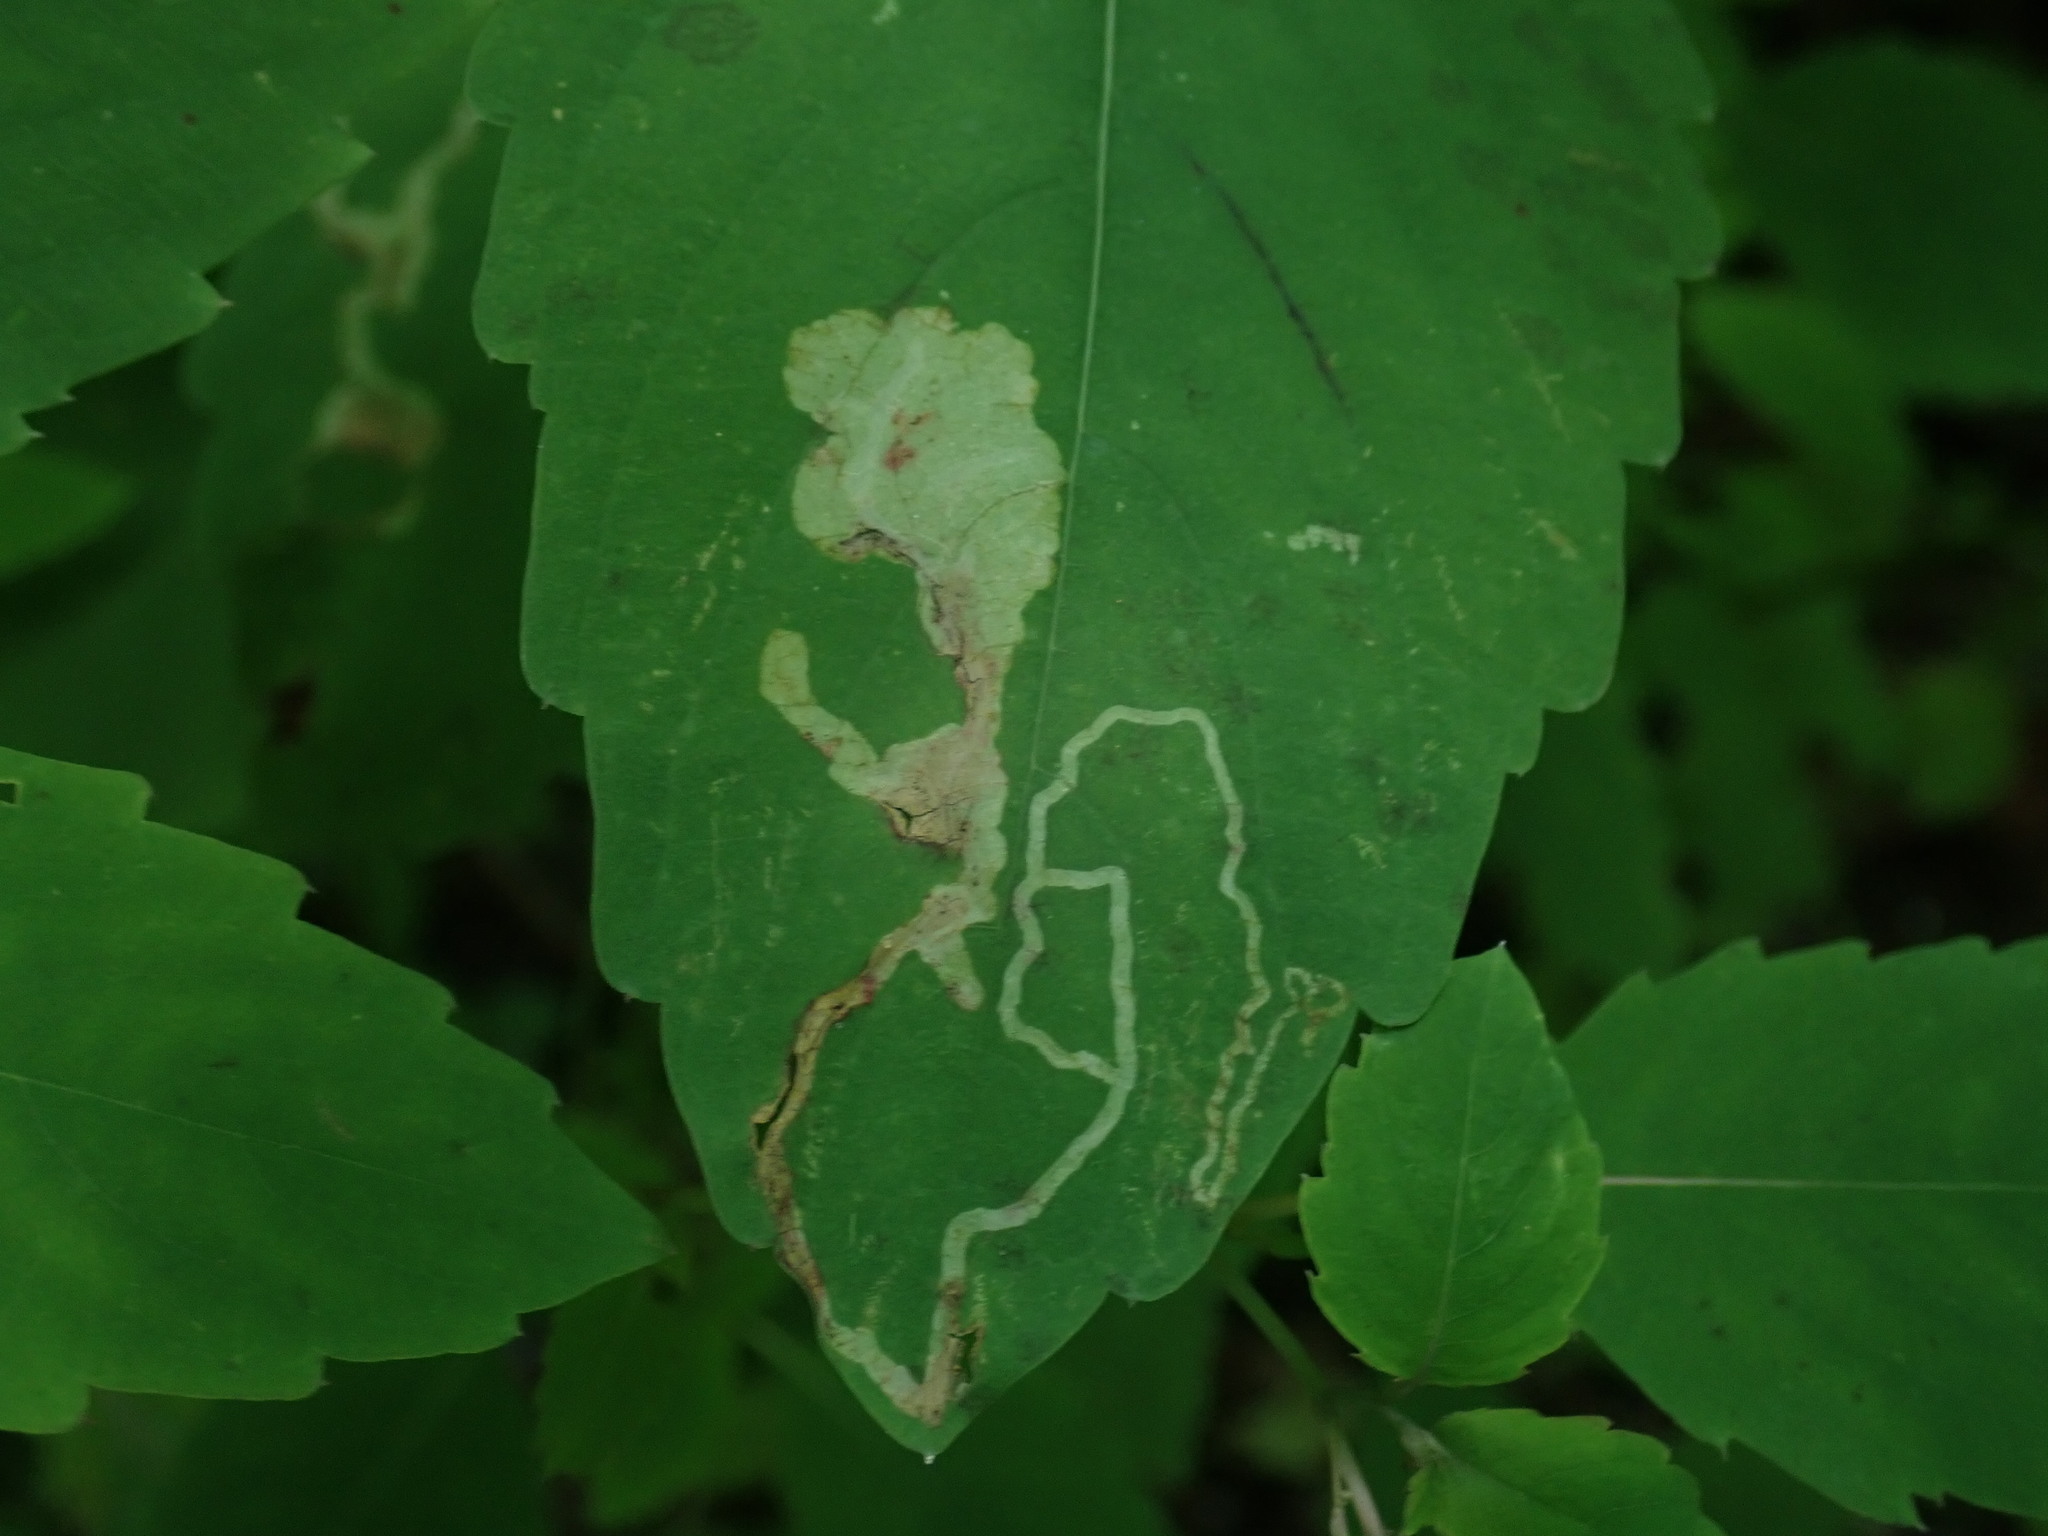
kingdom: Animalia
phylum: Arthropoda
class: Insecta
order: Diptera
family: Agromyzidae
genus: Phytoliriomyza
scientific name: Phytoliriomyza melampyga
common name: Jewelweed leaf-miner fly
